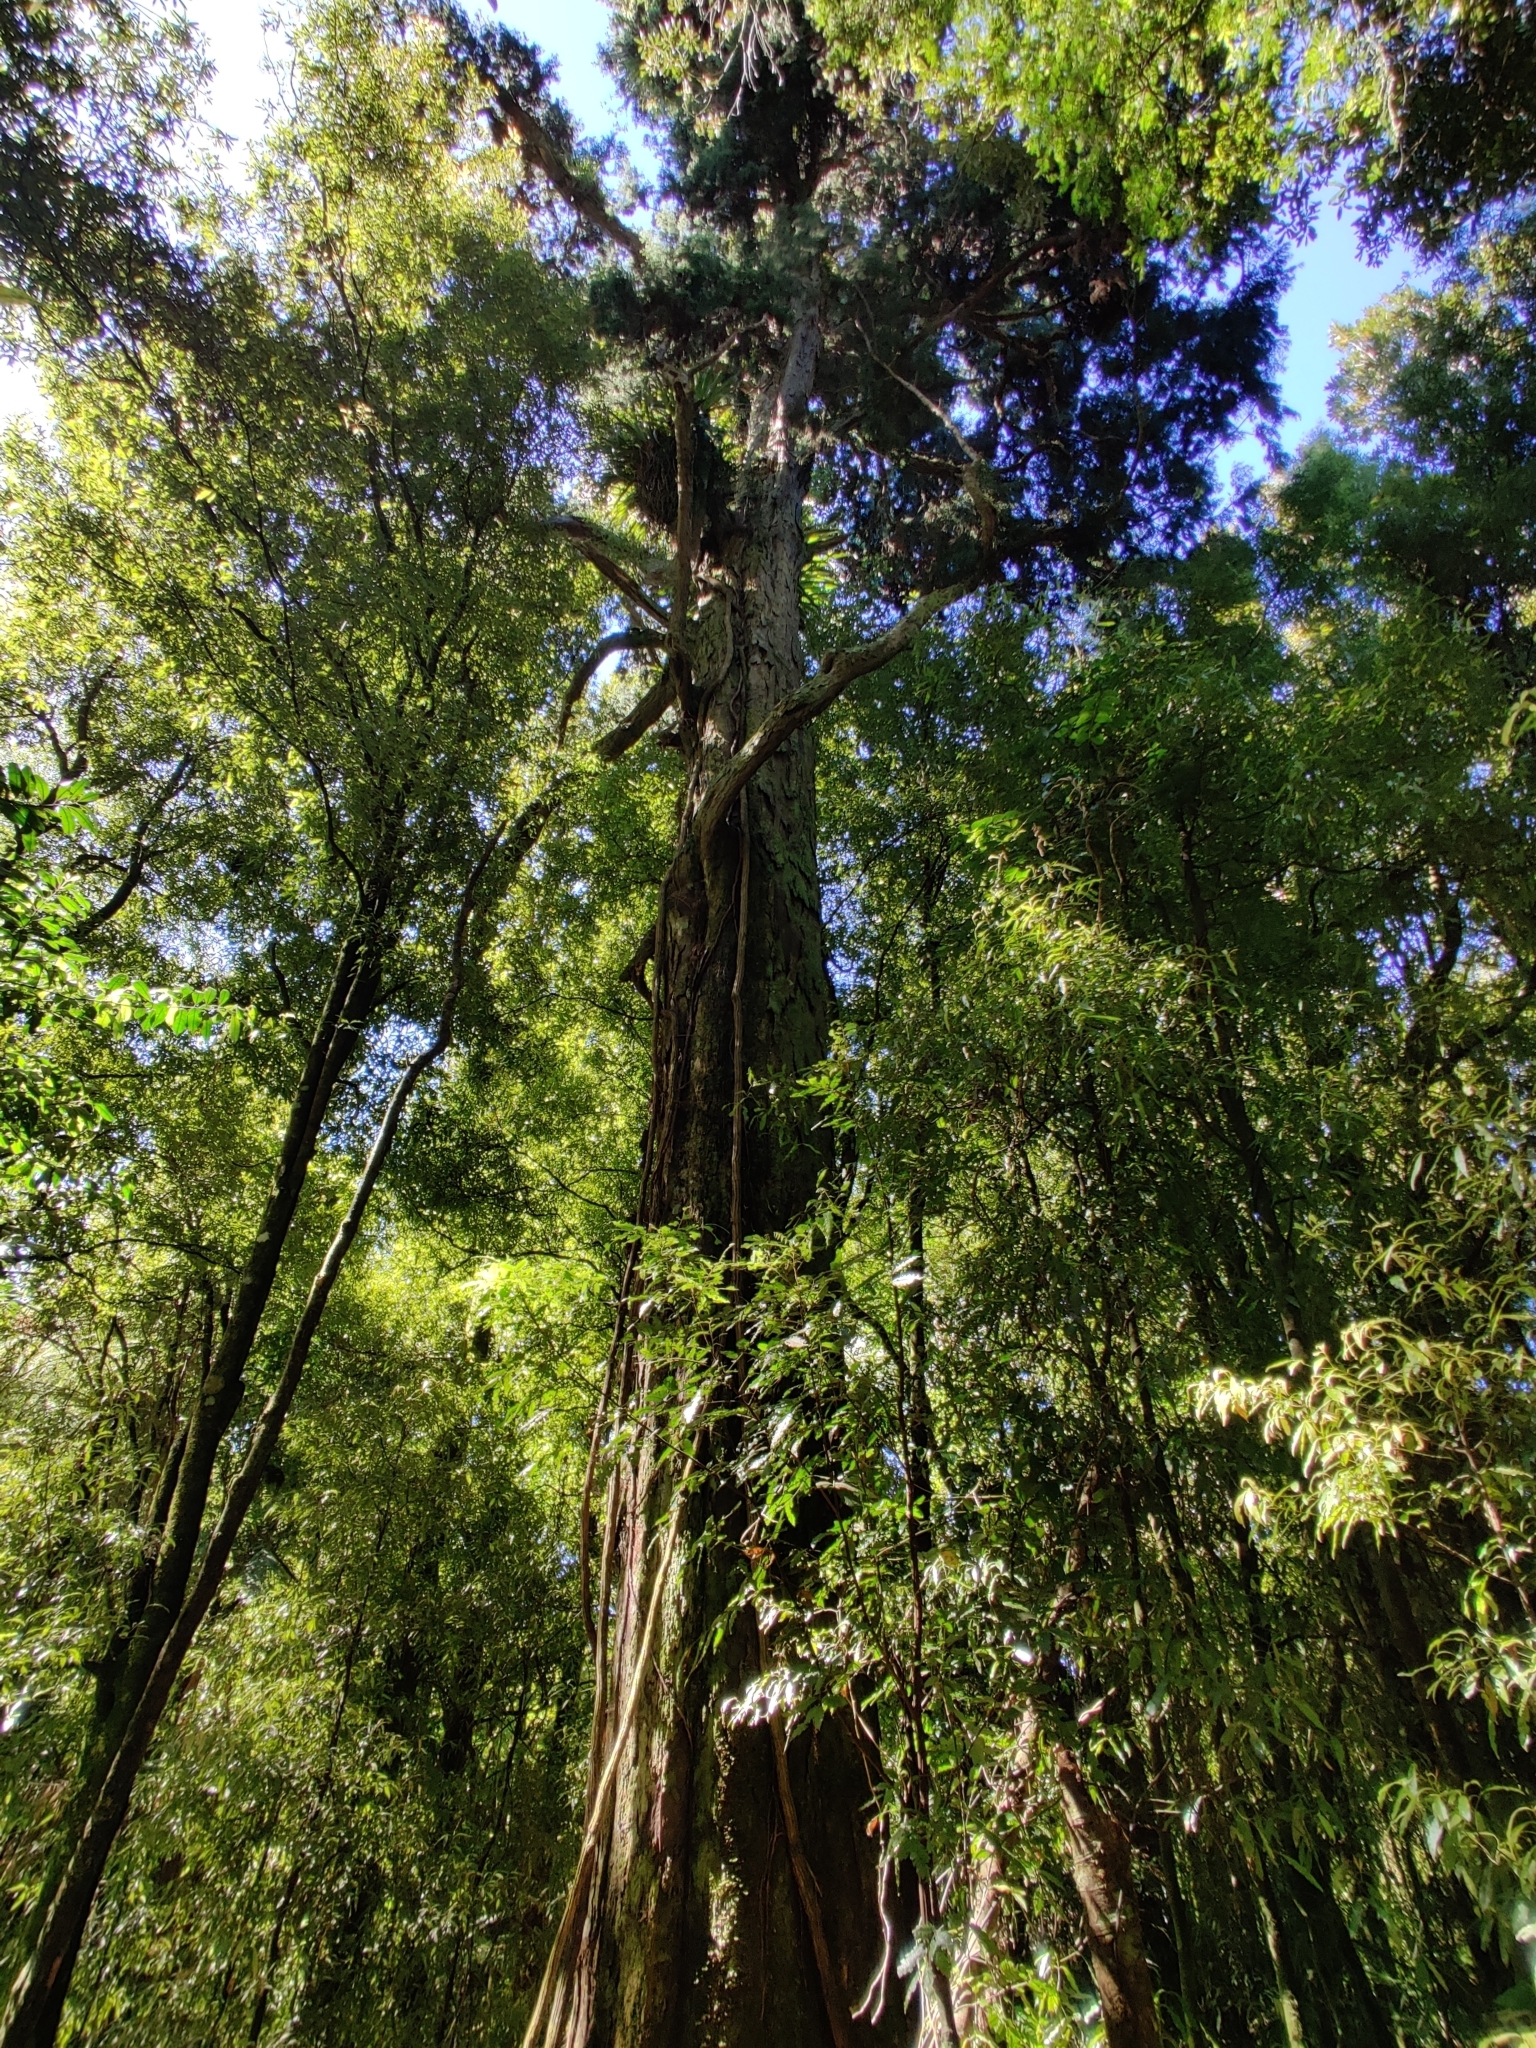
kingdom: Plantae
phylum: Tracheophyta
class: Pinopsida
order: Pinales
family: Podocarpaceae
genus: Dacrydium
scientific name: Dacrydium cupressinum
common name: Red pine
